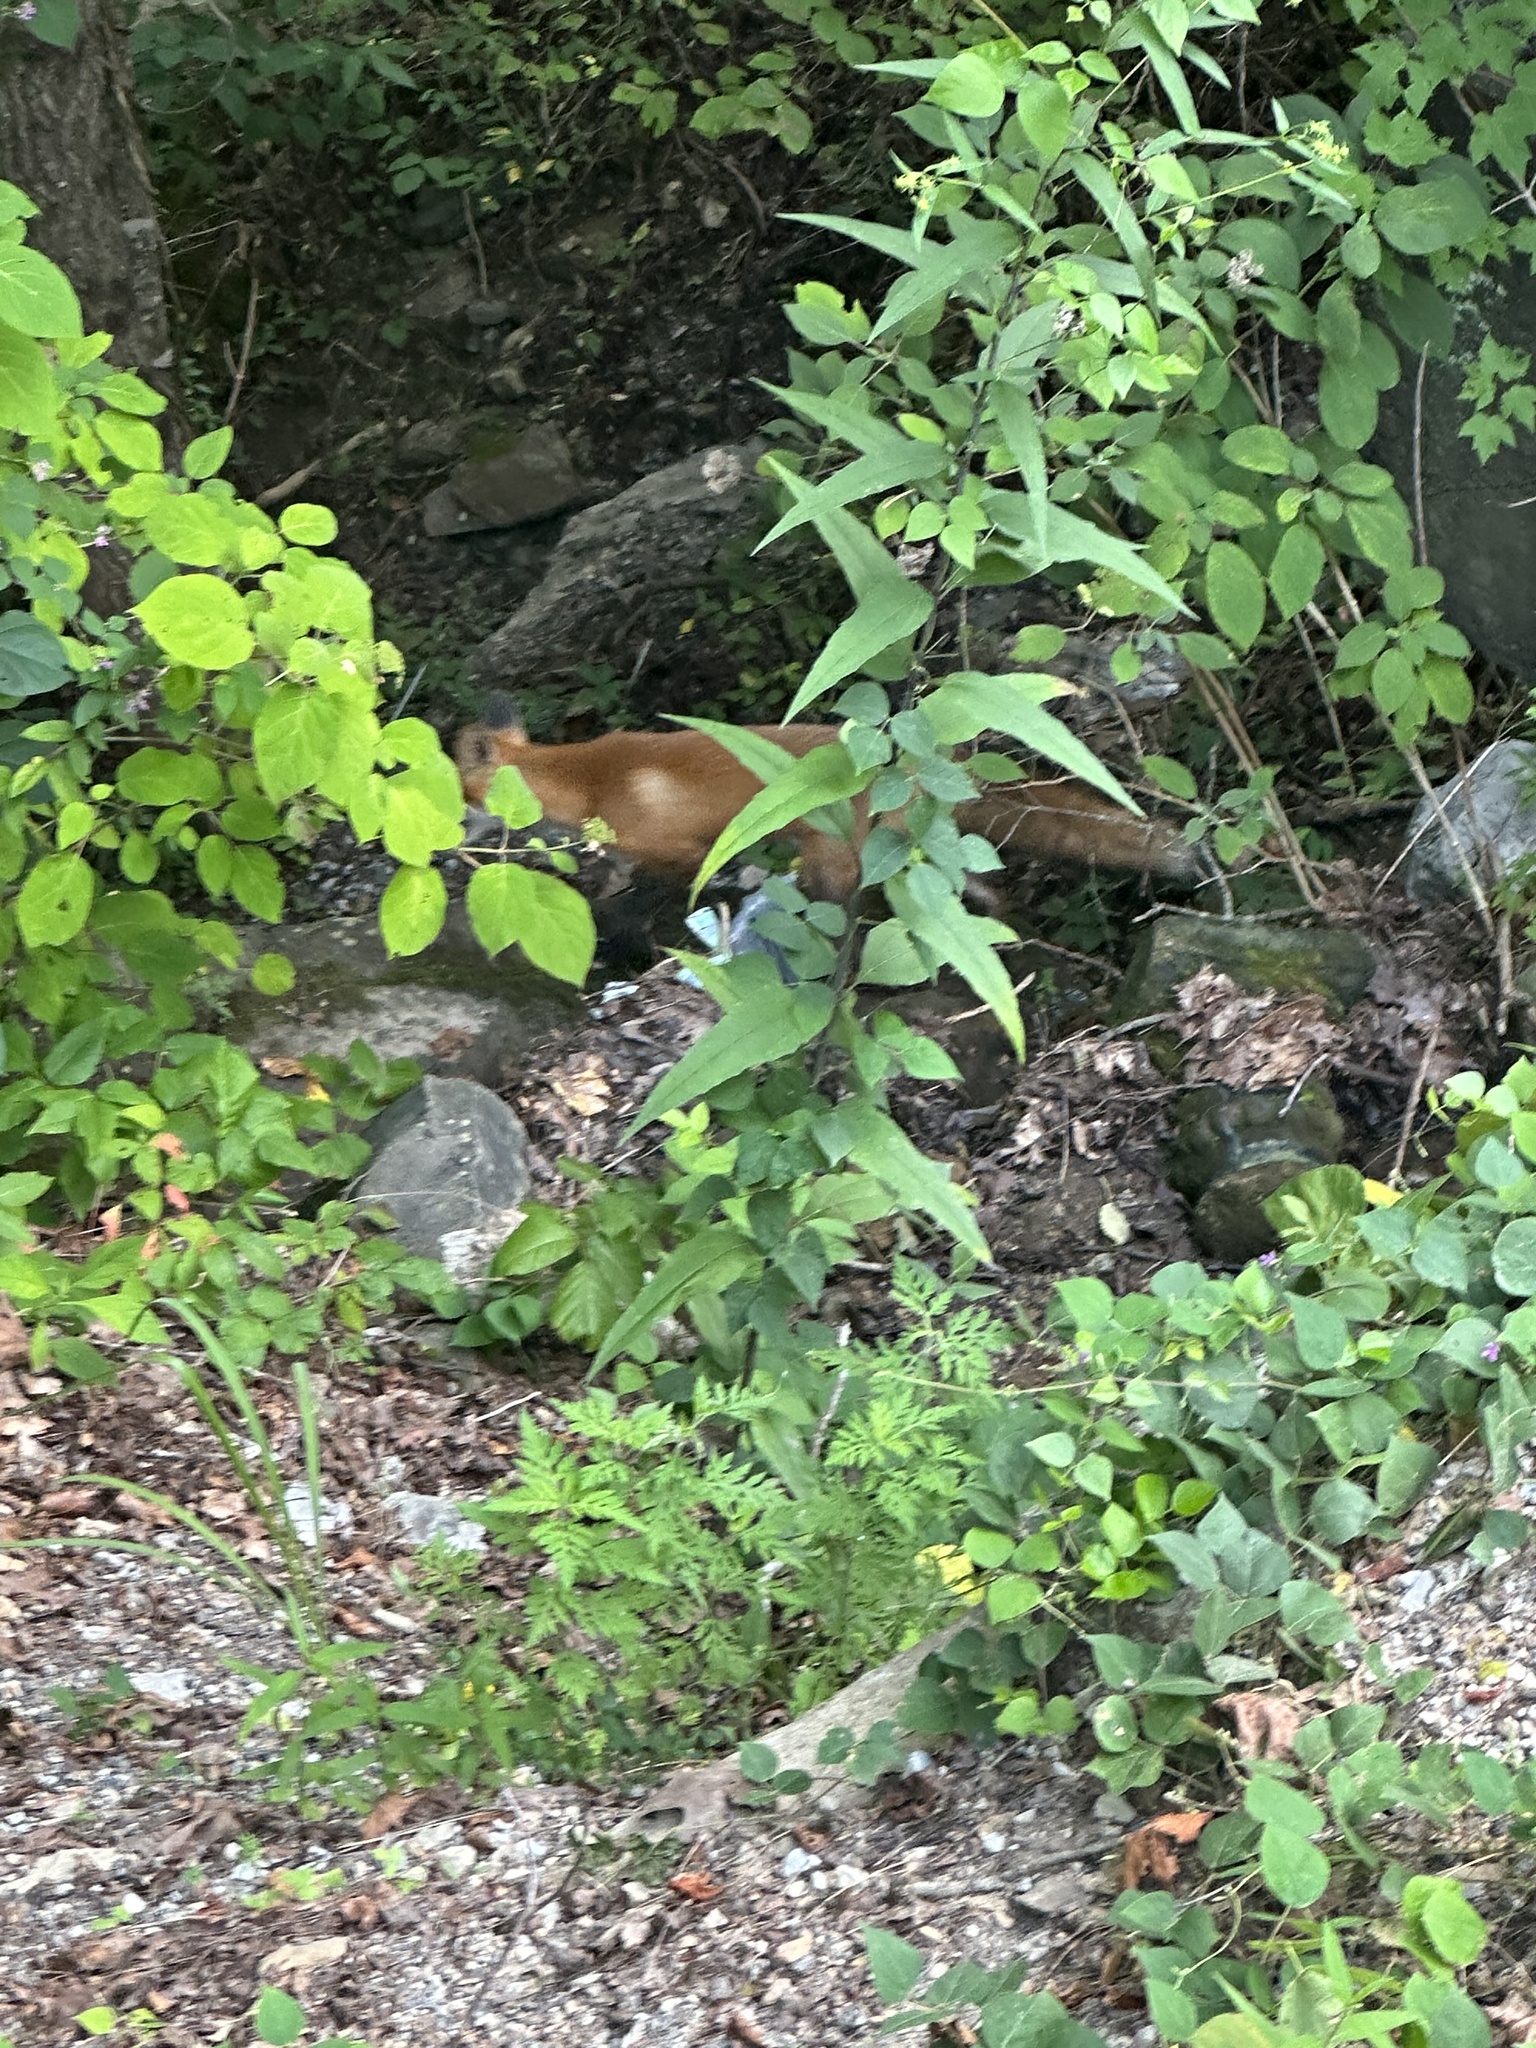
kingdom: Animalia
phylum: Chordata
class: Mammalia
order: Carnivora
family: Canidae
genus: Vulpes
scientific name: Vulpes vulpes
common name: Red fox
